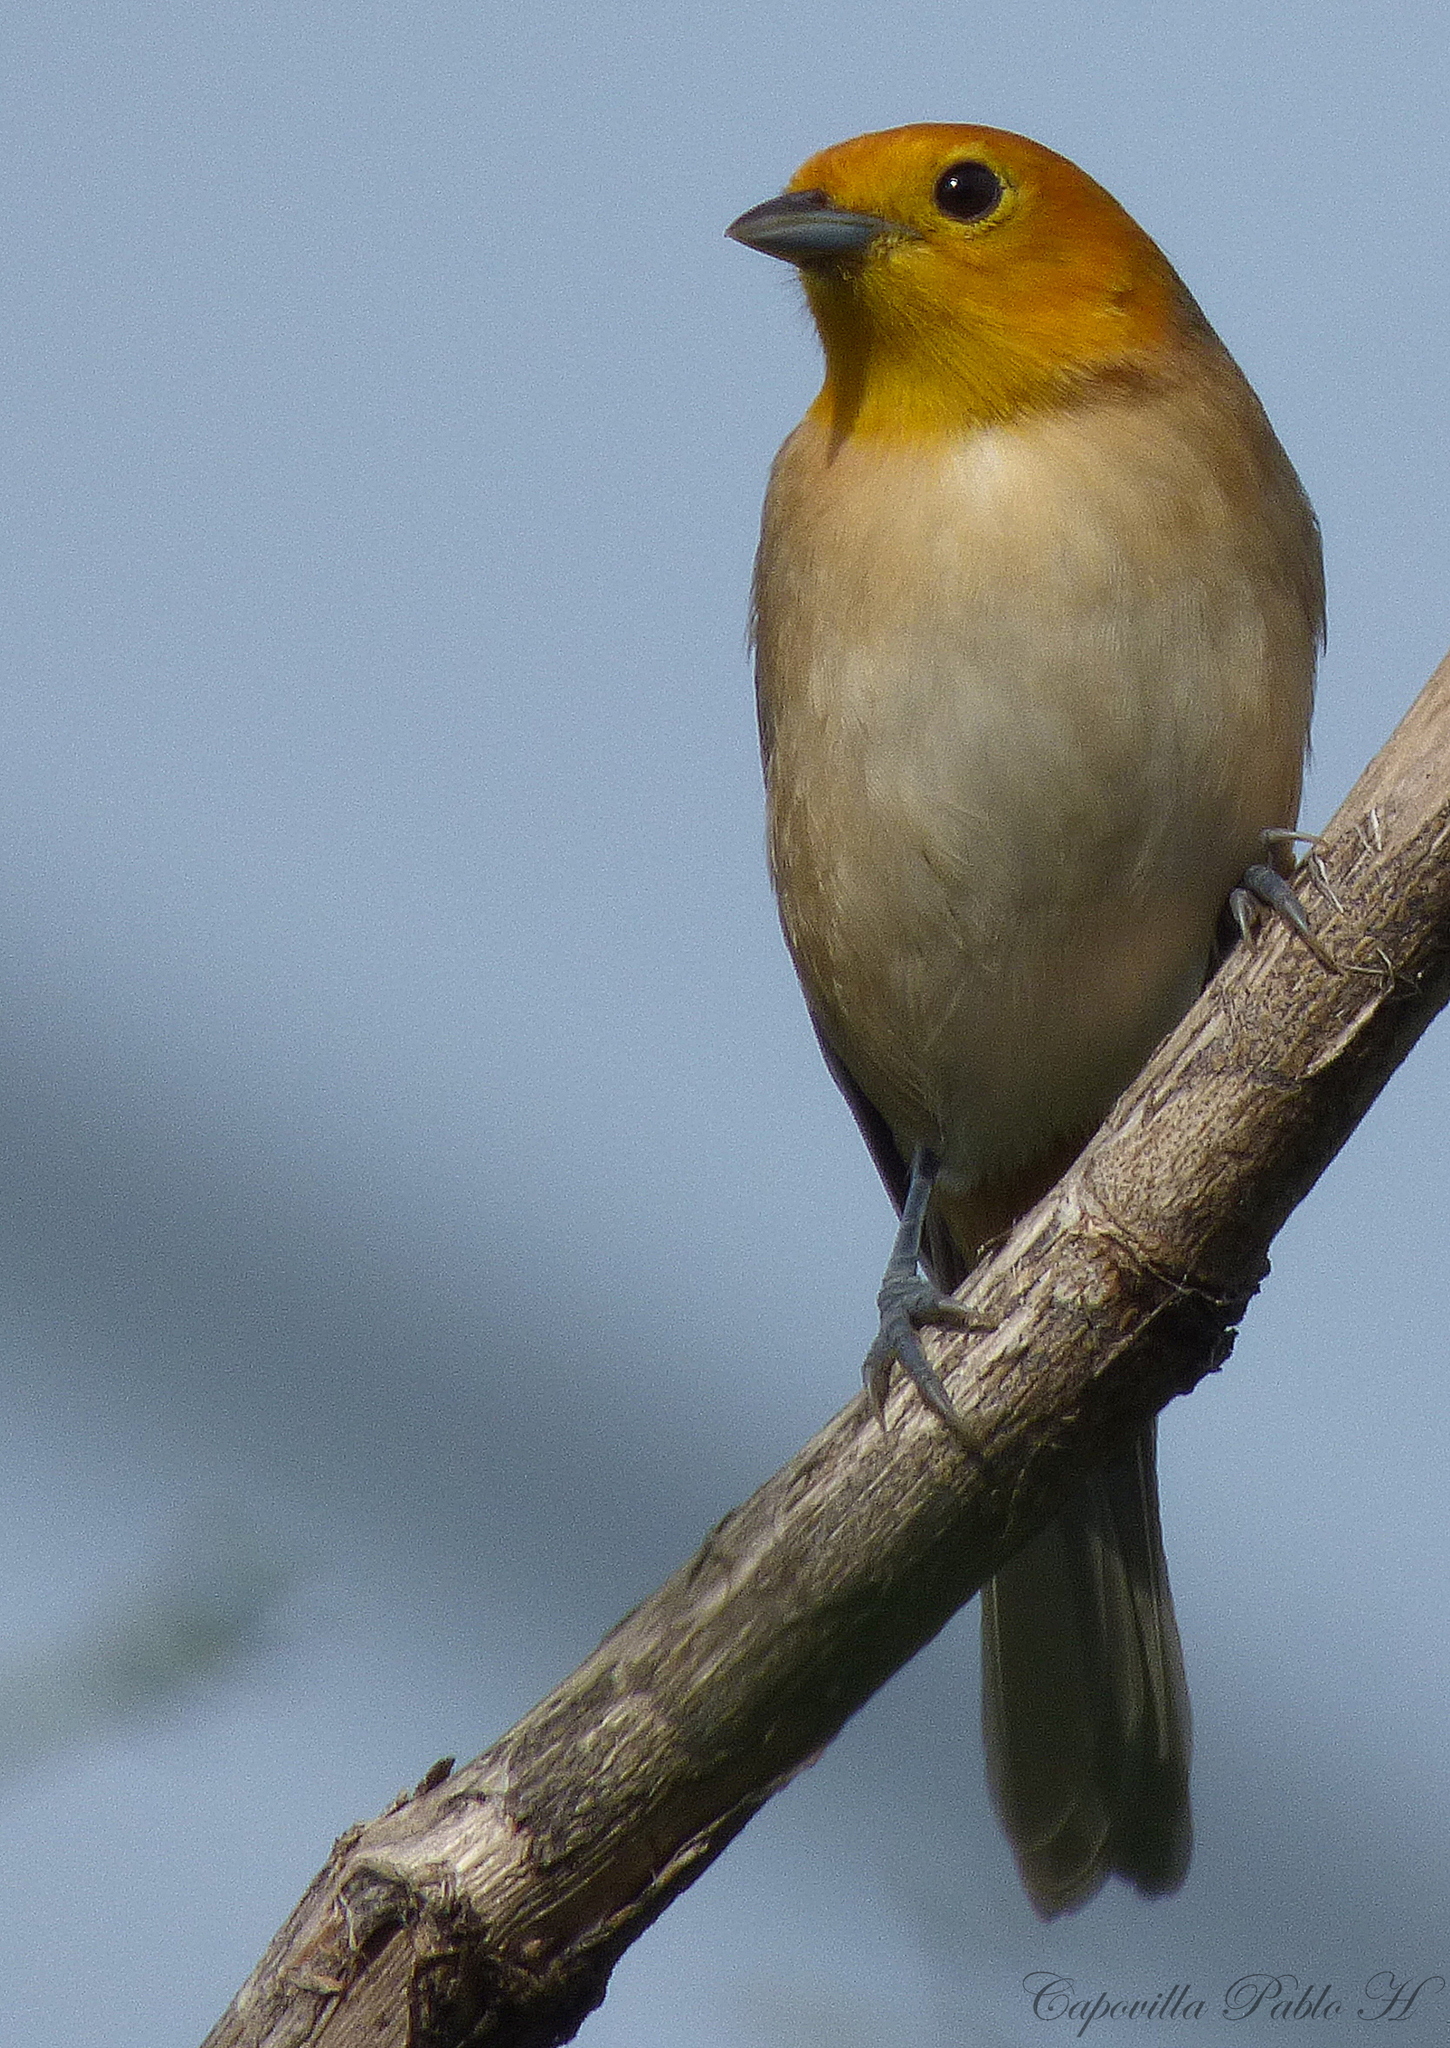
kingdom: Animalia
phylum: Chordata
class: Aves
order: Passeriformes
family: Thraupidae
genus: Thlypopsis
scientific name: Thlypopsis sordida
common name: Orange-headed tanager
